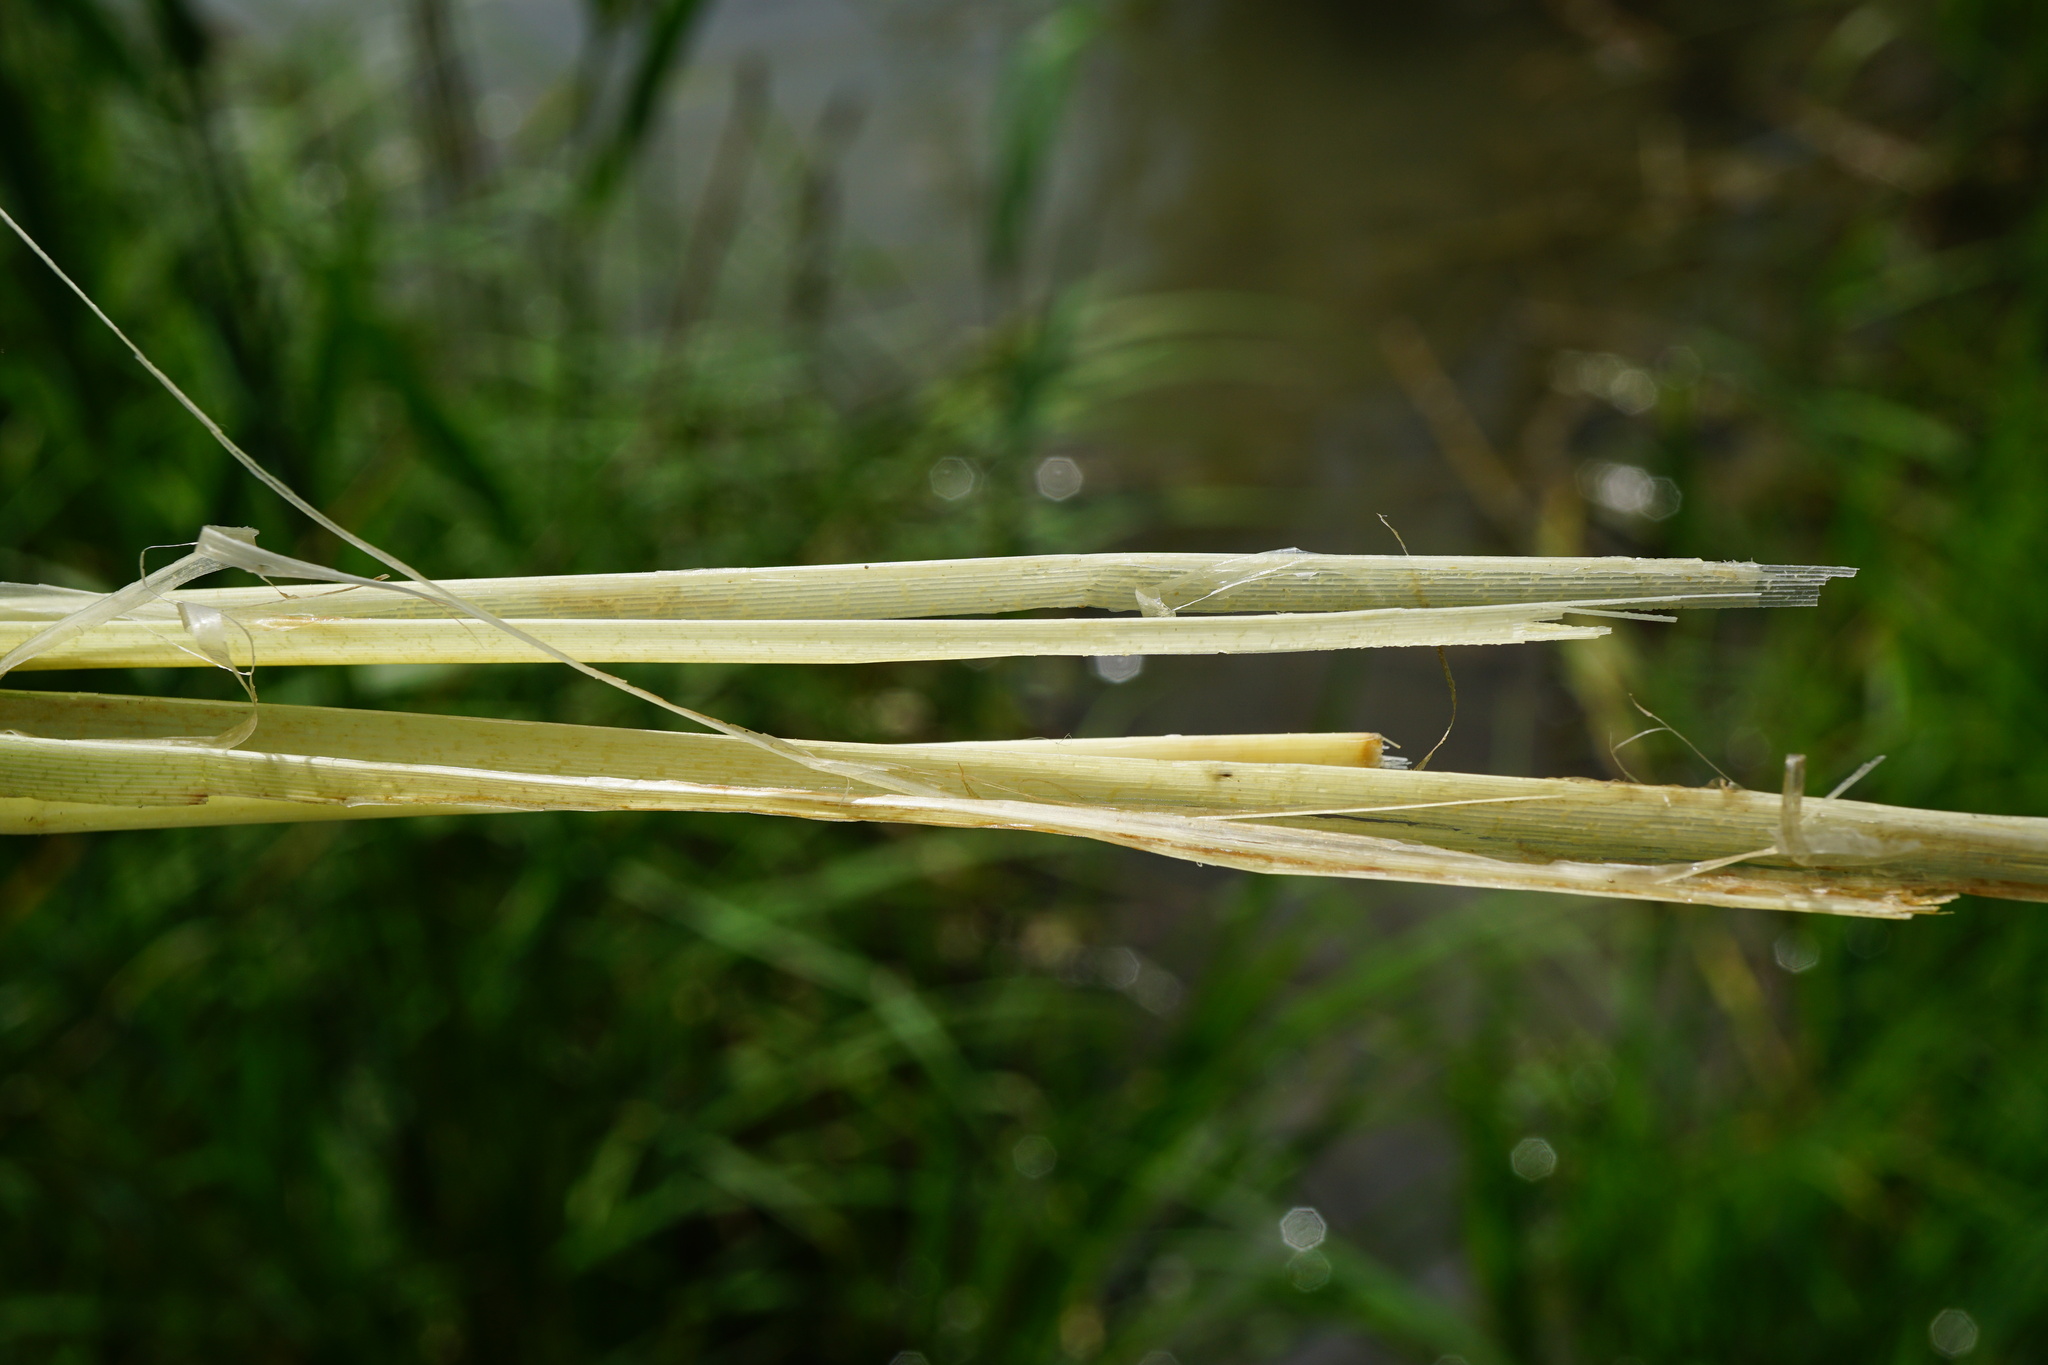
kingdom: Plantae
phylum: Tracheophyta
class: Liliopsida
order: Poales
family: Cyperaceae
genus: Carex
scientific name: Carex riparia
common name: Greater pond-sedge
